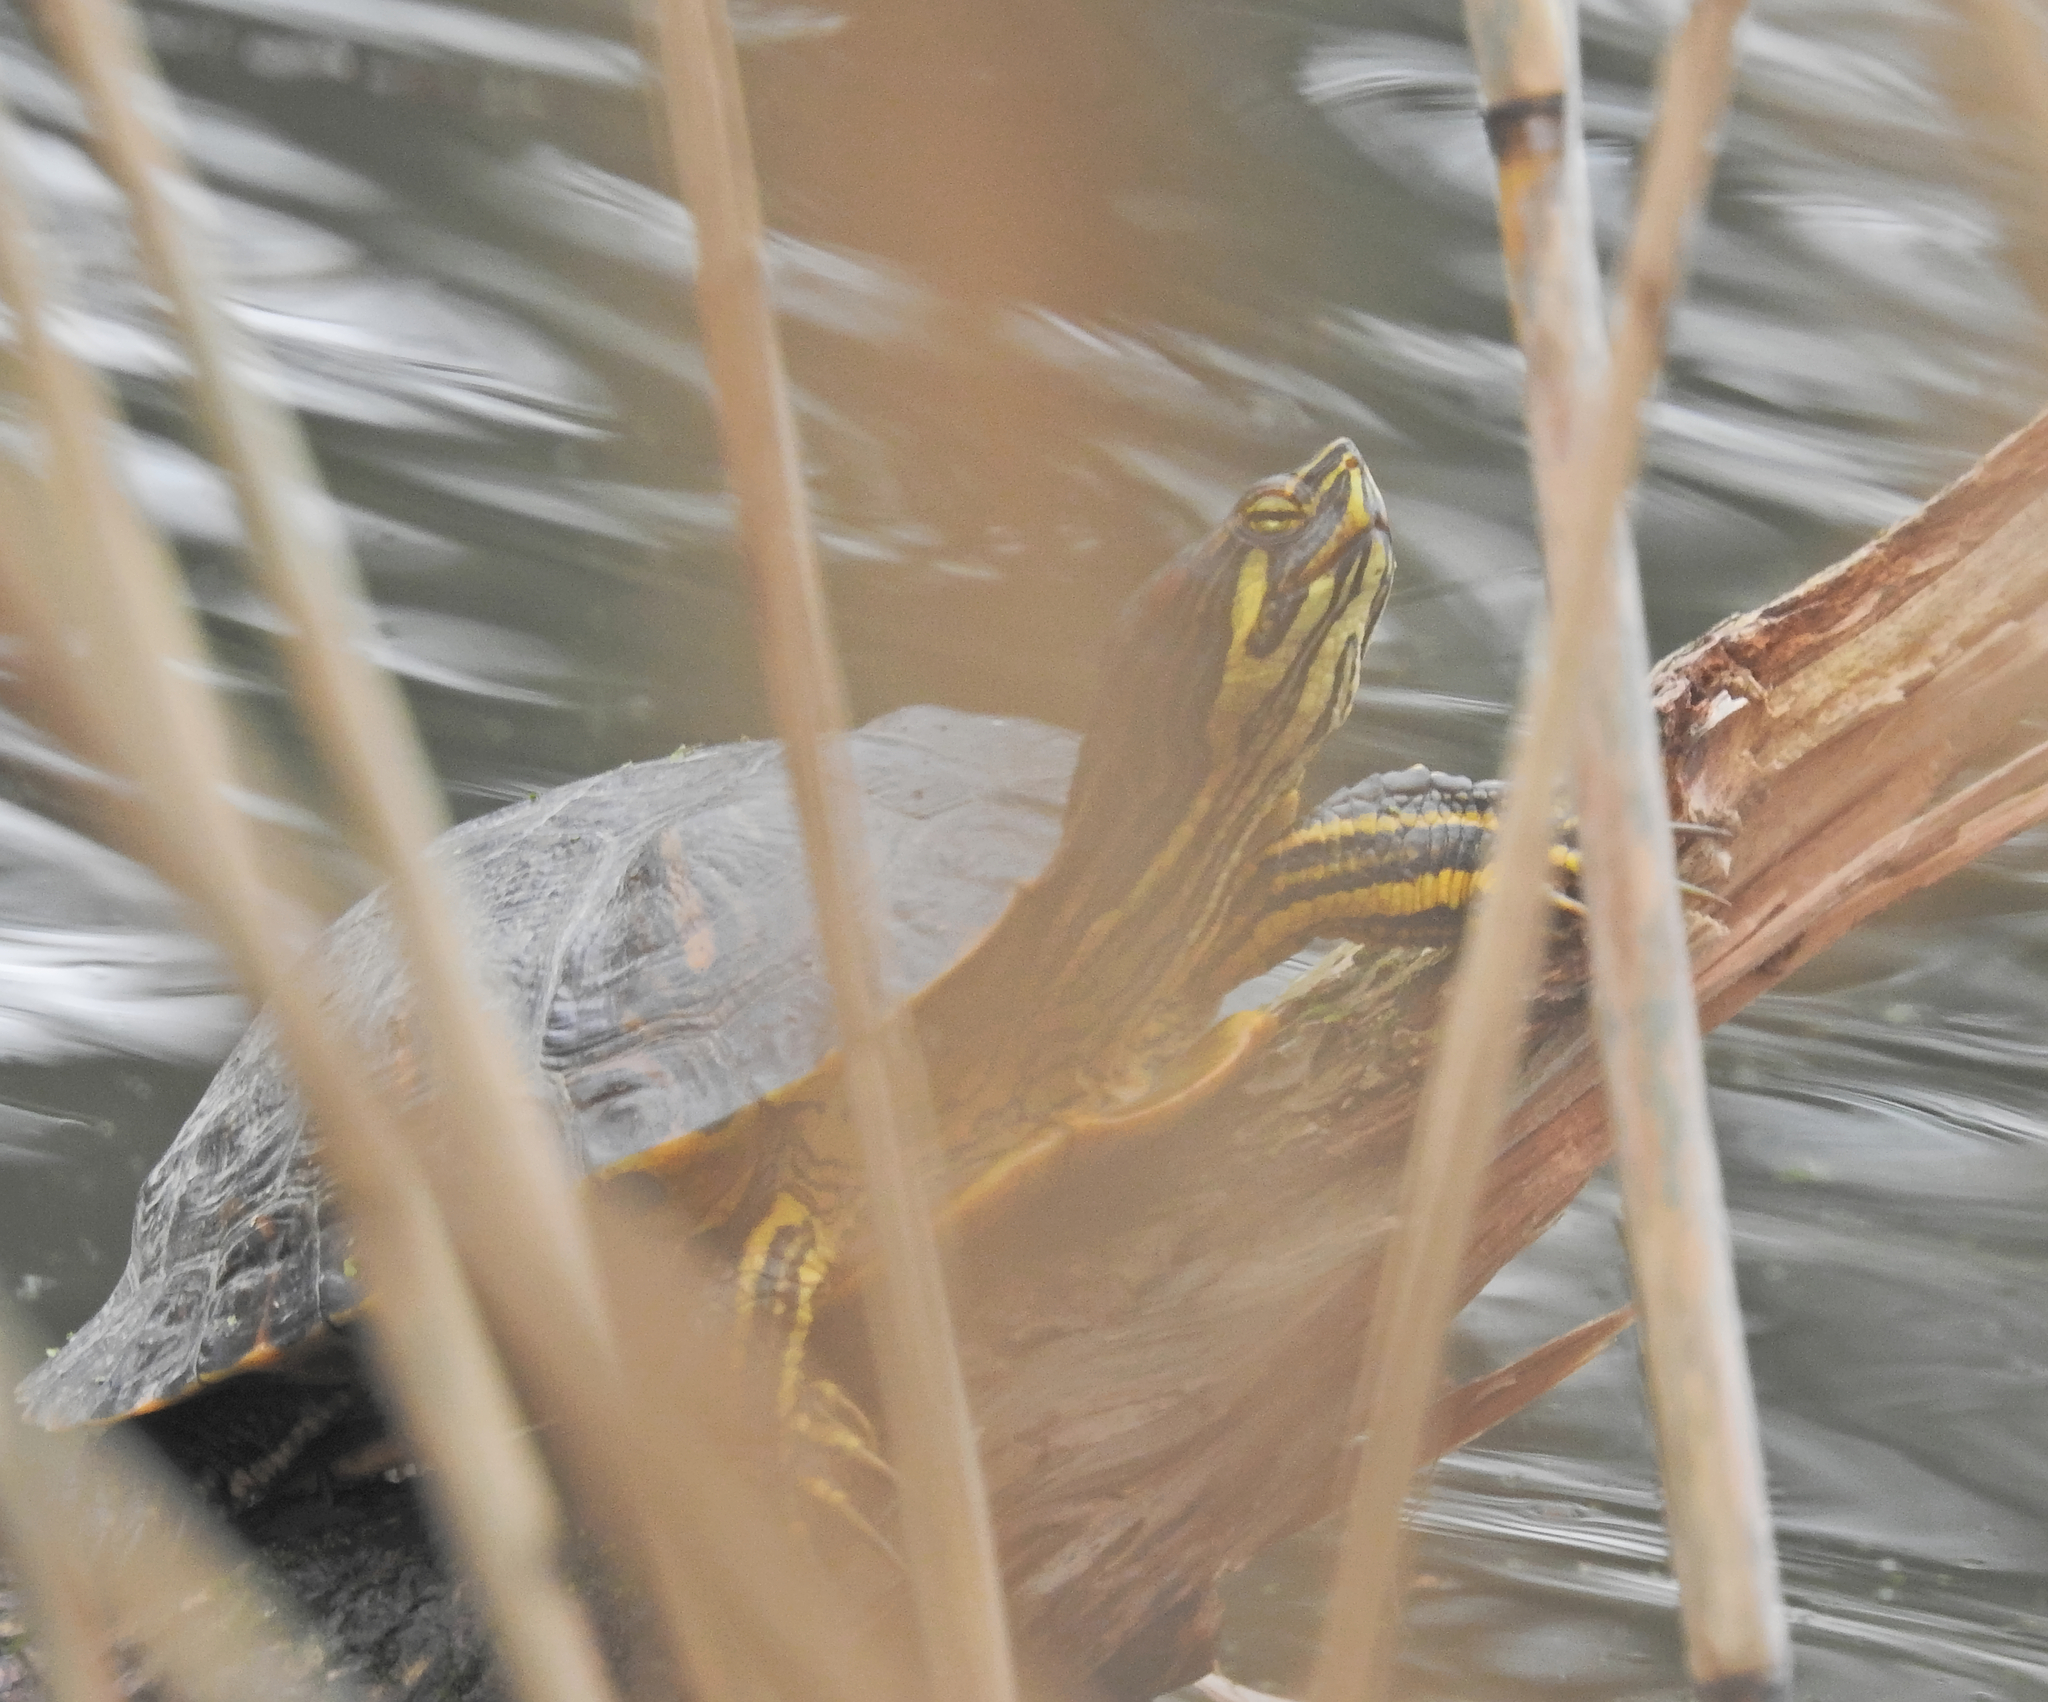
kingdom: Animalia
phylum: Chordata
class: Testudines
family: Emydidae
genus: Trachemys
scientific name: Trachemys scripta
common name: Slider
